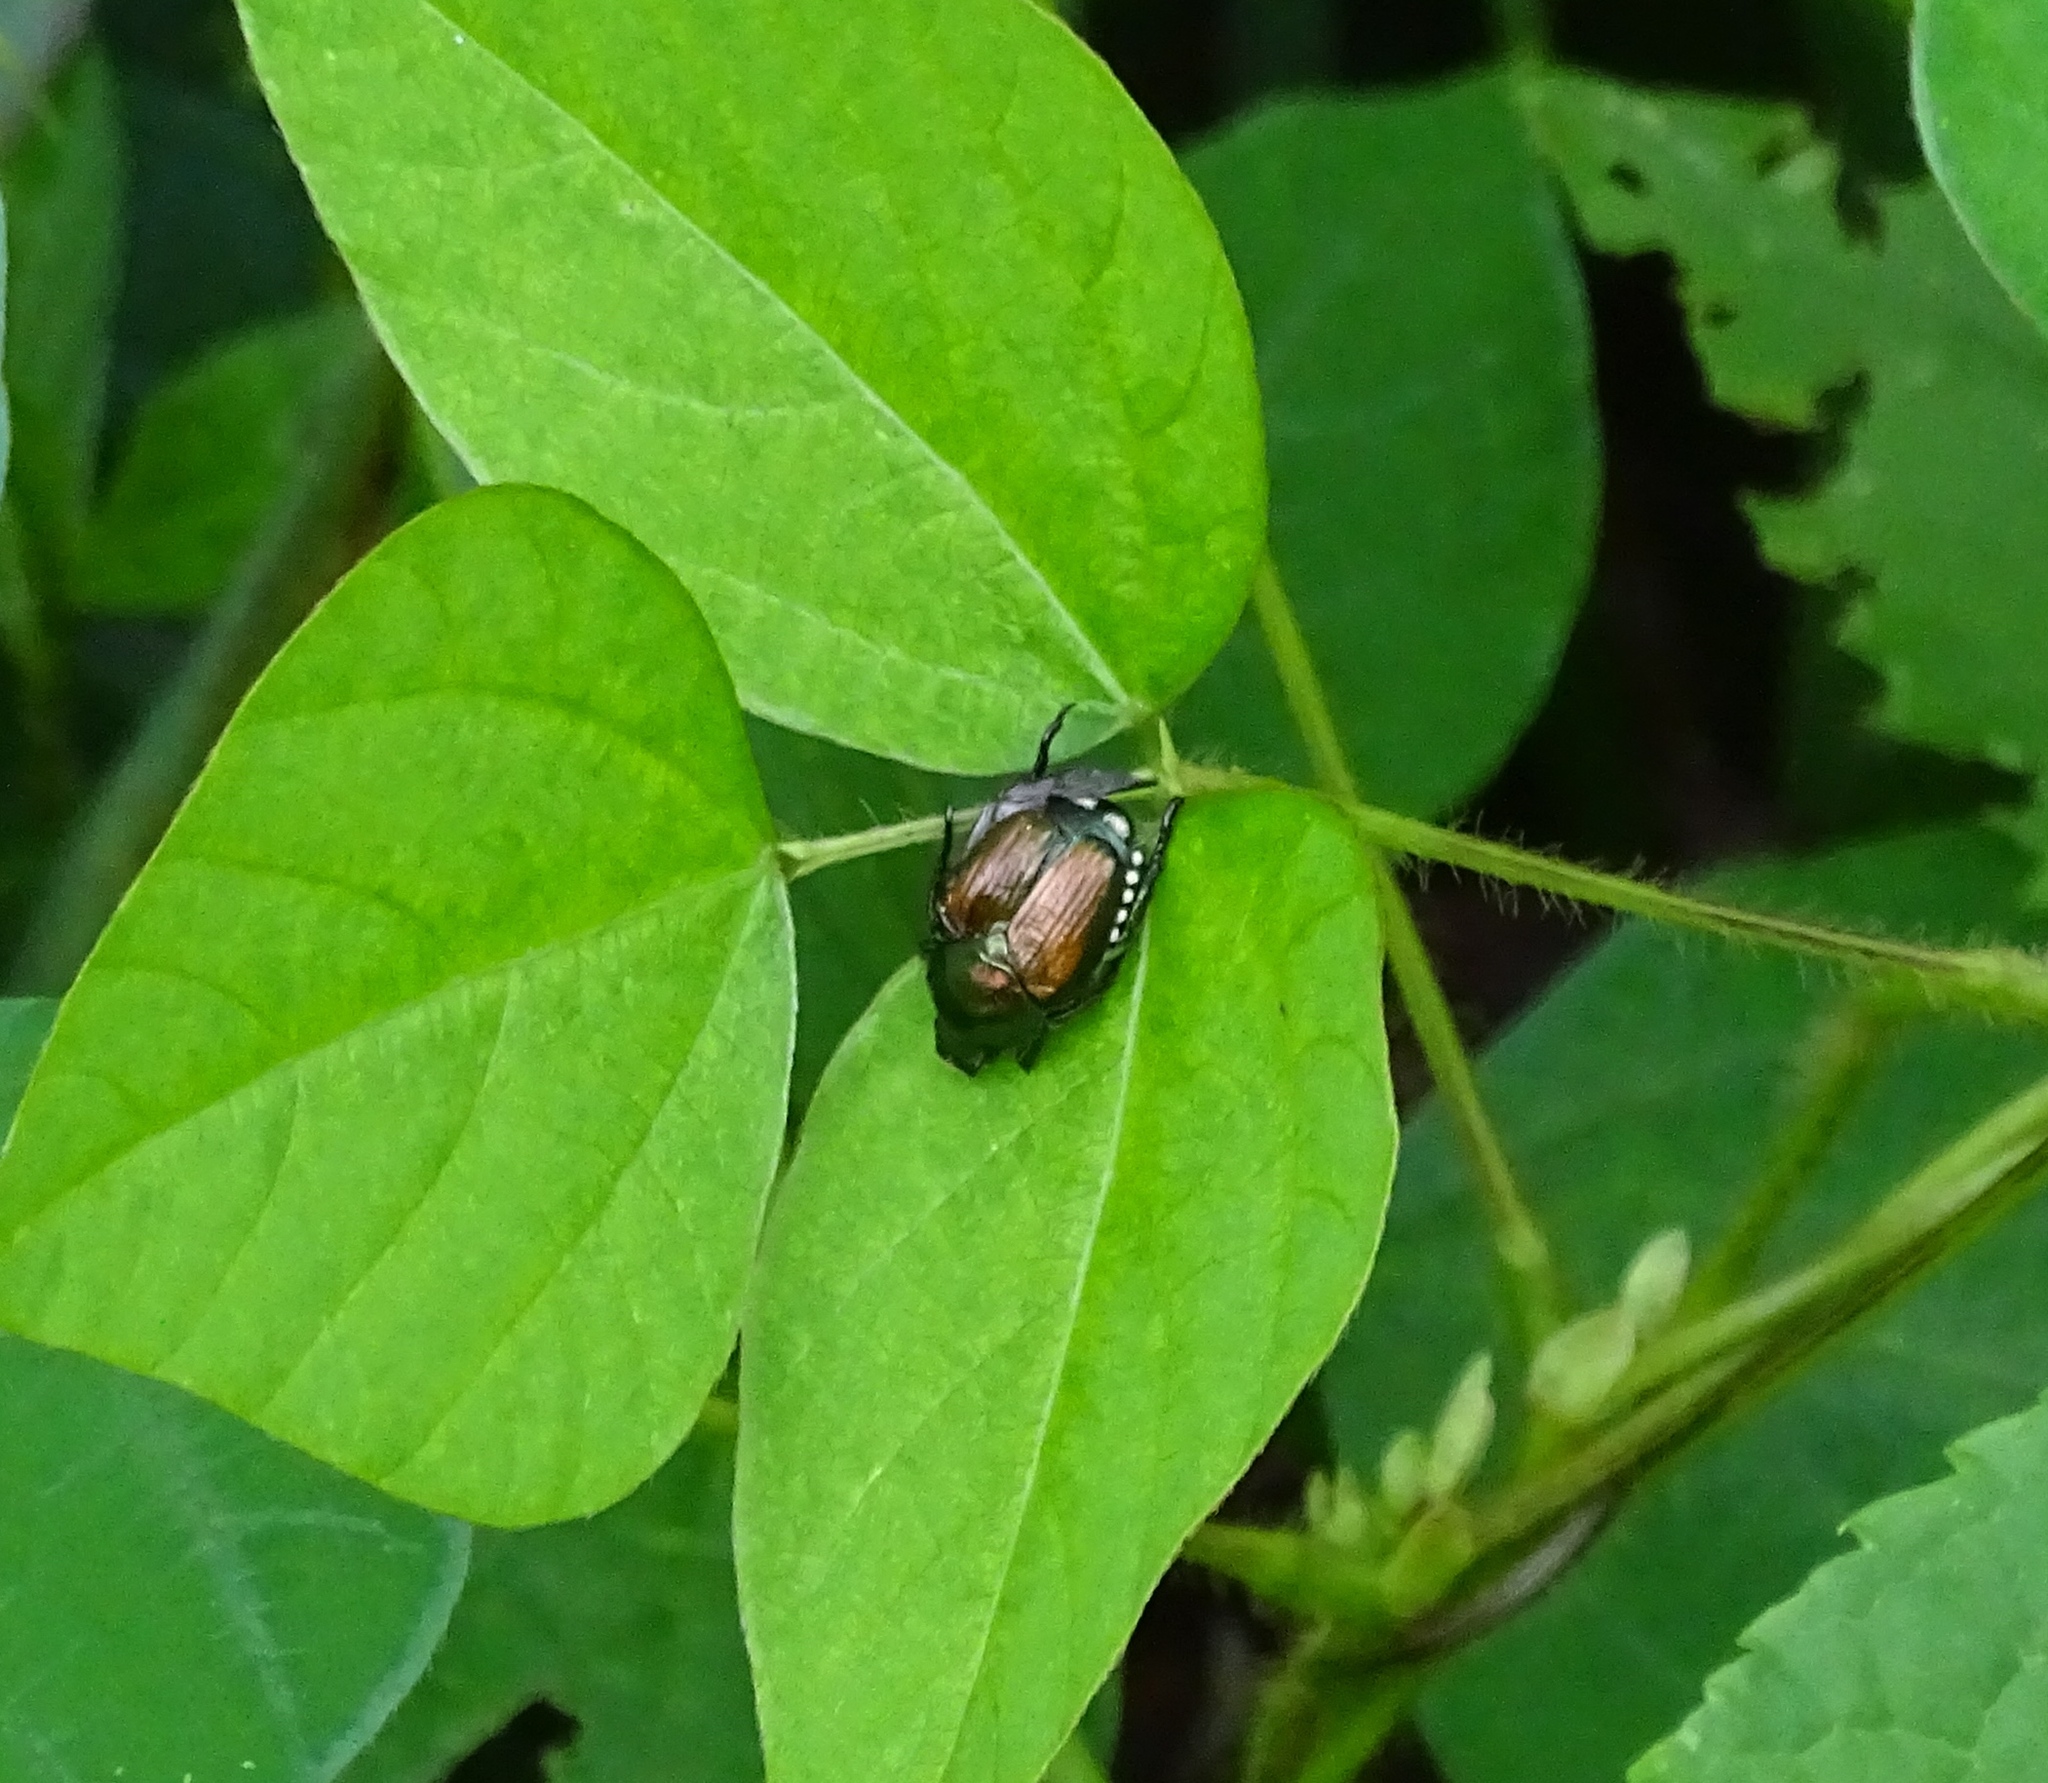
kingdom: Animalia
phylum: Arthropoda
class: Insecta
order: Coleoptera
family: Scarabaeidae
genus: Popillia
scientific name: Popillia japonica
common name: Japanese beetle
